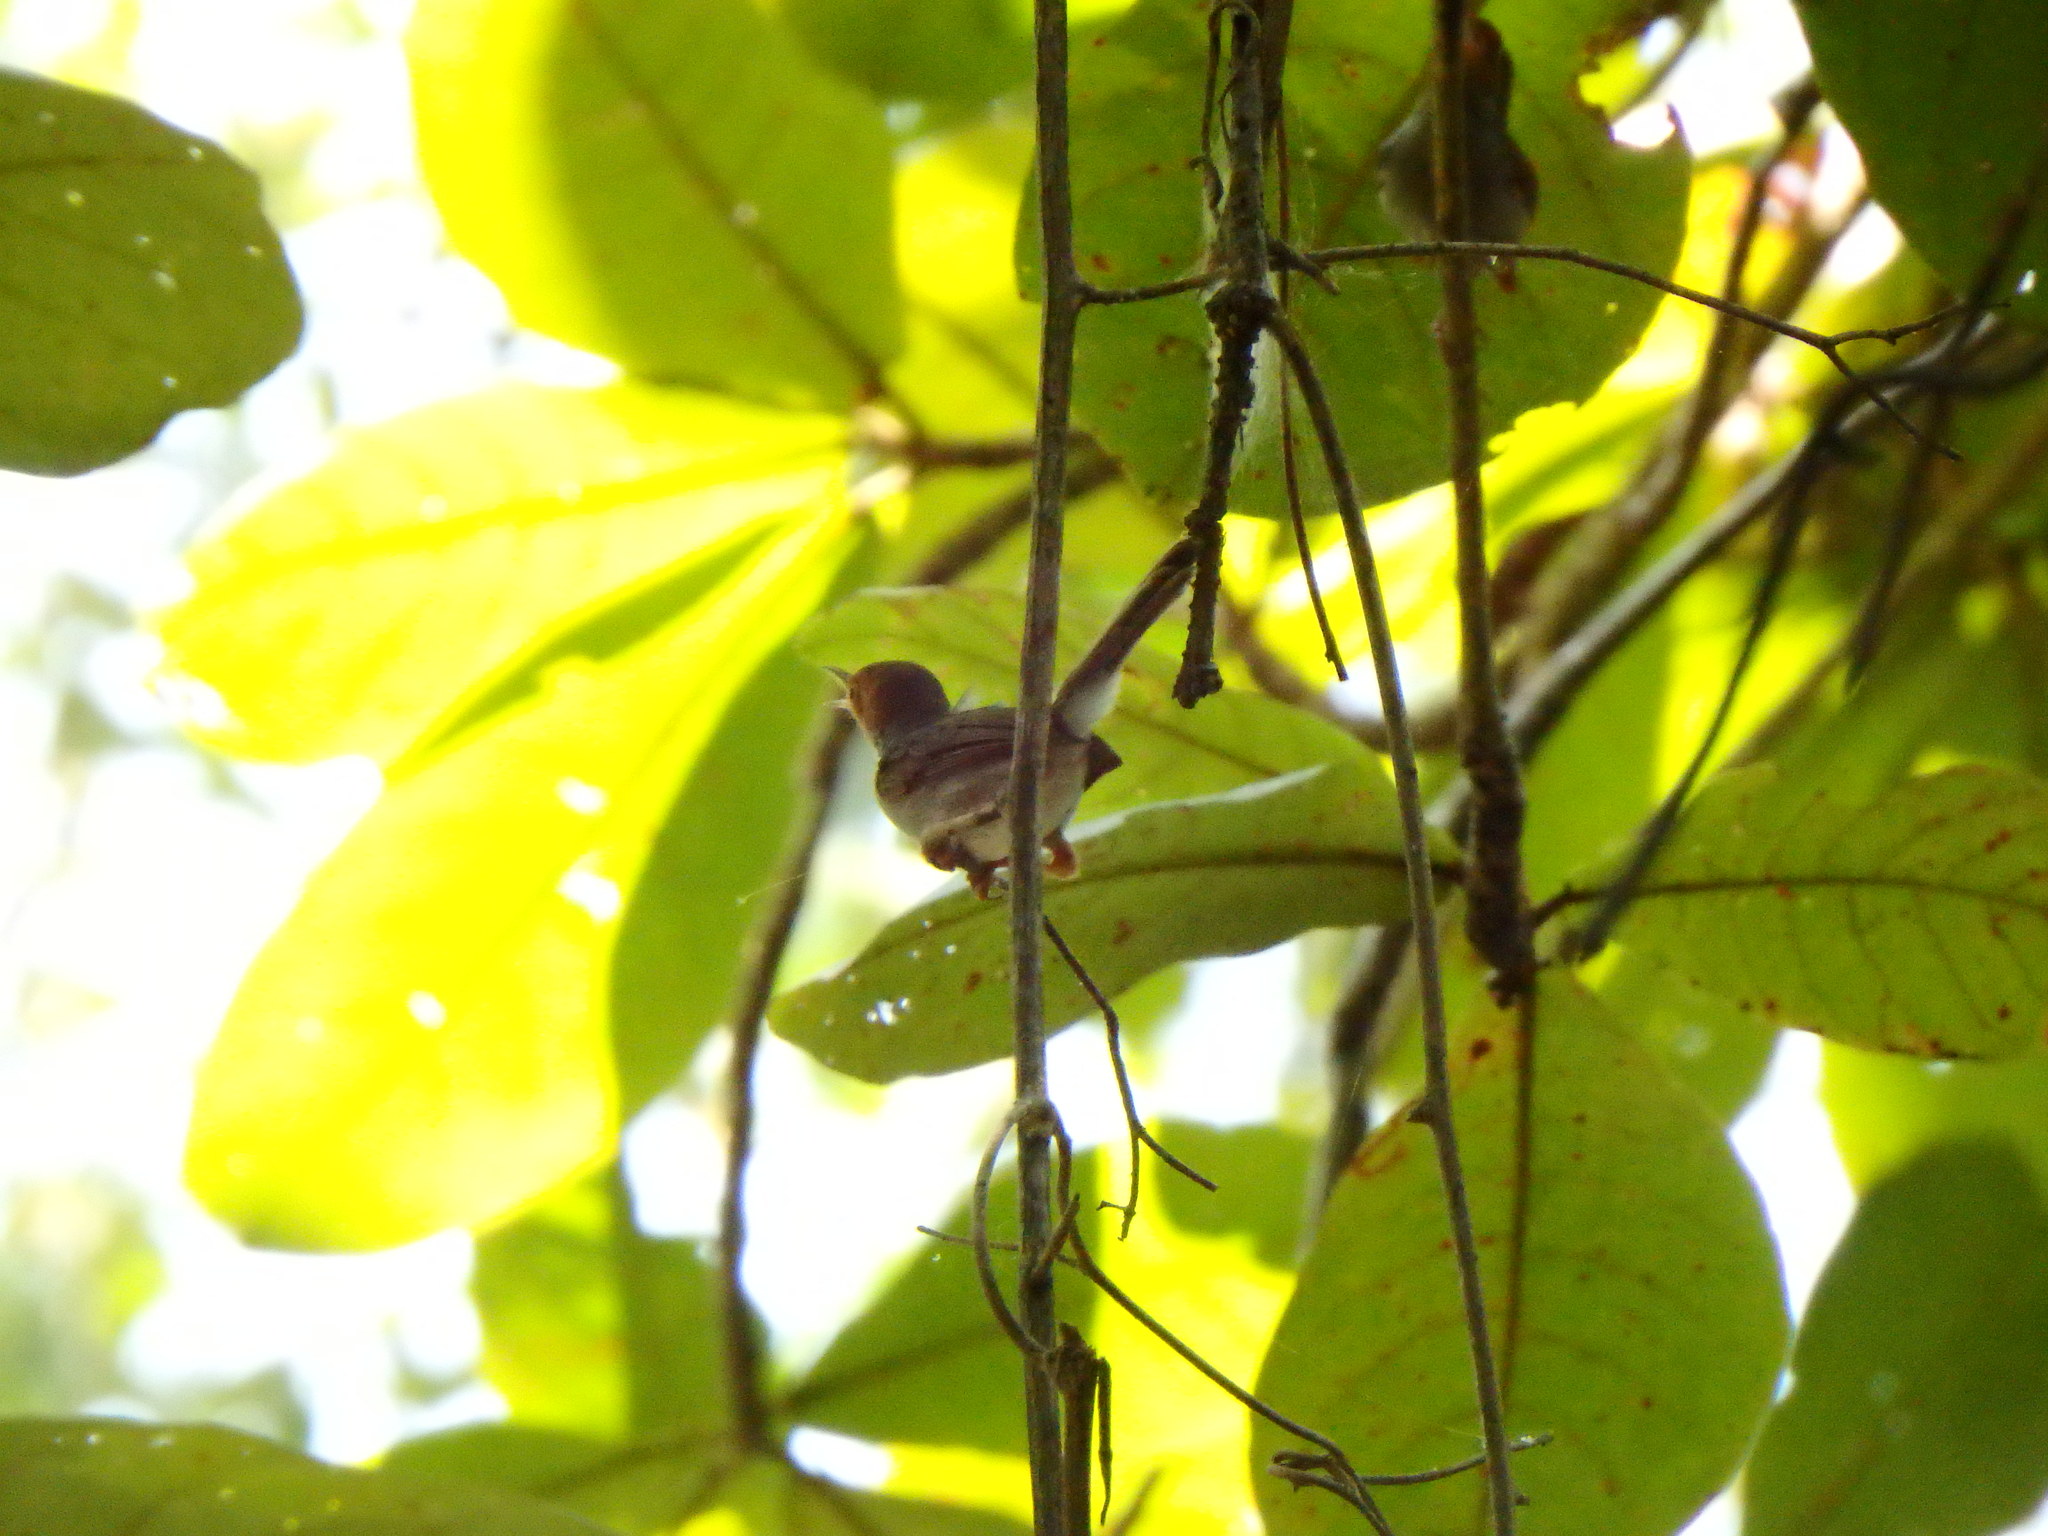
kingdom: Animalia
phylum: Chordata
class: Aves
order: Passeriformes
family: Cisticolidae
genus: Orthotomus
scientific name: Orthotomus ruficeps
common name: Ashy tailorbird
